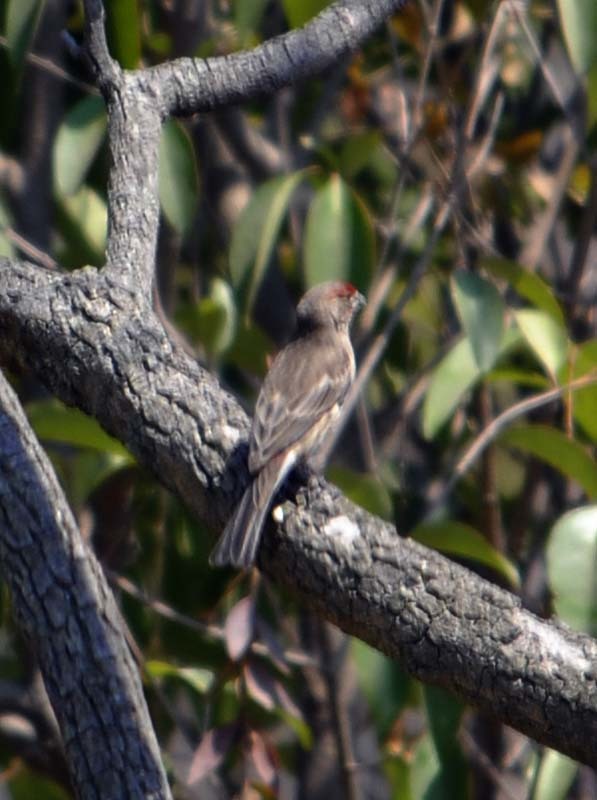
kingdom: Animalia
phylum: Chordata
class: Aves
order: Passeriformes
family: Fringillidae
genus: Haemorhous
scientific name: Haemorhous mexicanus
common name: House finch
